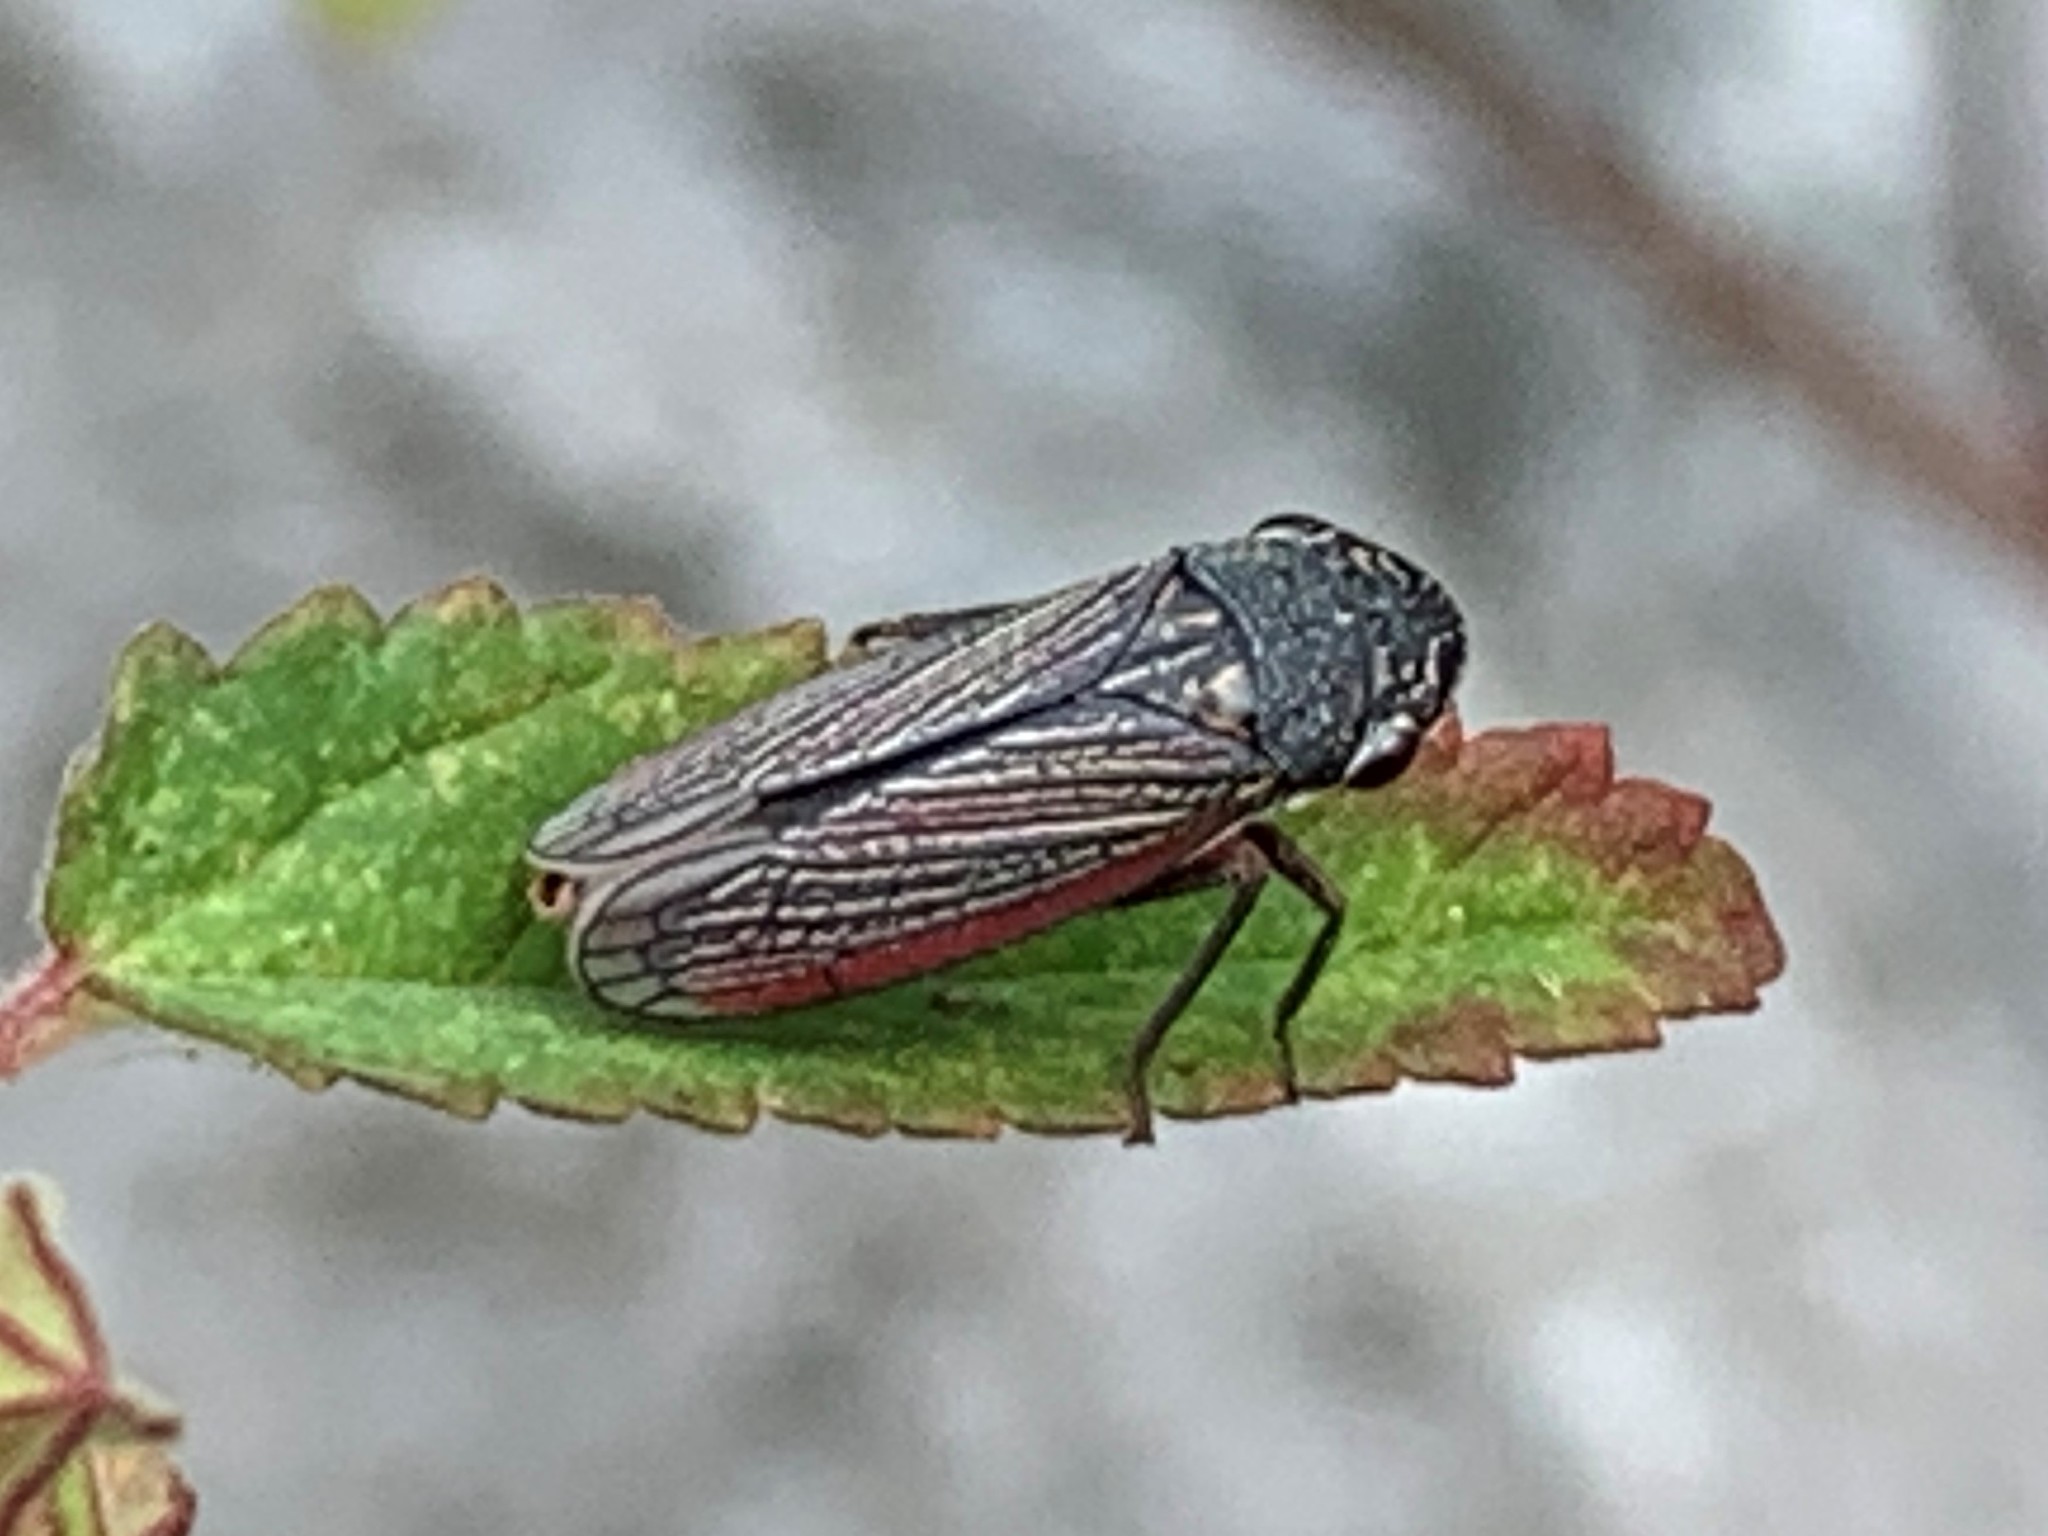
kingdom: Animalia
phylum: Arthropoda
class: Insecta
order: Hemiptera
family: Cicadellidae
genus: Cuerna
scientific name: Cuerna costalis
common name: Lateral-lined sharpshooter
